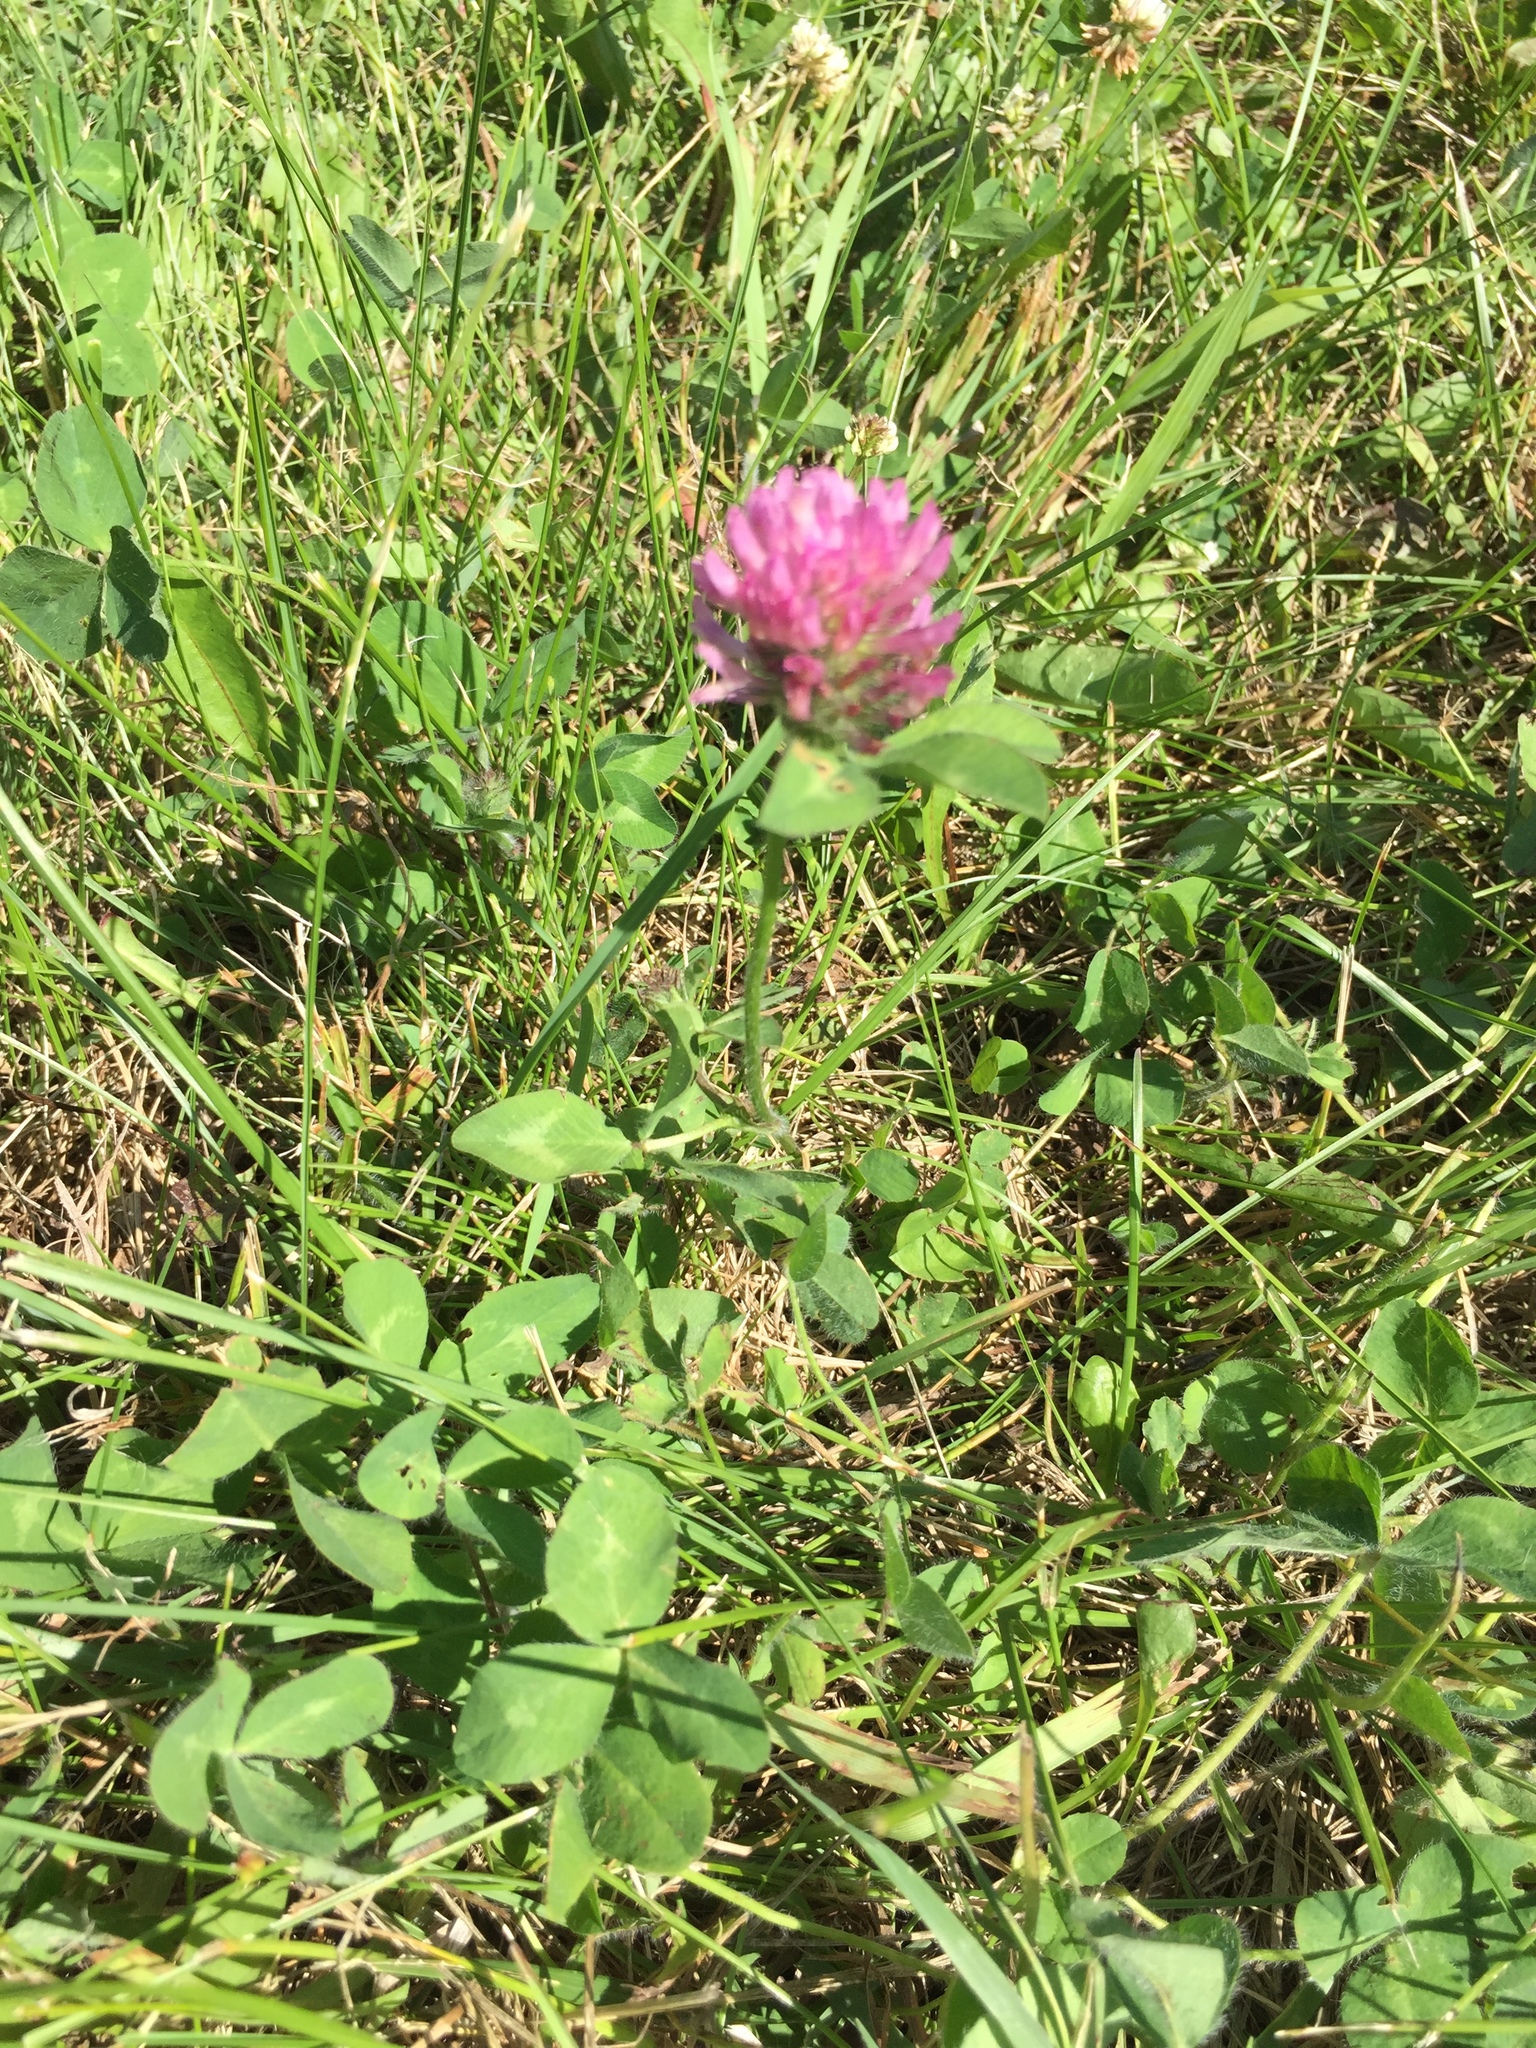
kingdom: Plantae
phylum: Tracheophyta
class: Magnoliopsida
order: Fabales
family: Fabaceae
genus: Trifolium
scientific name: Trifolium pratense
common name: Red clover
